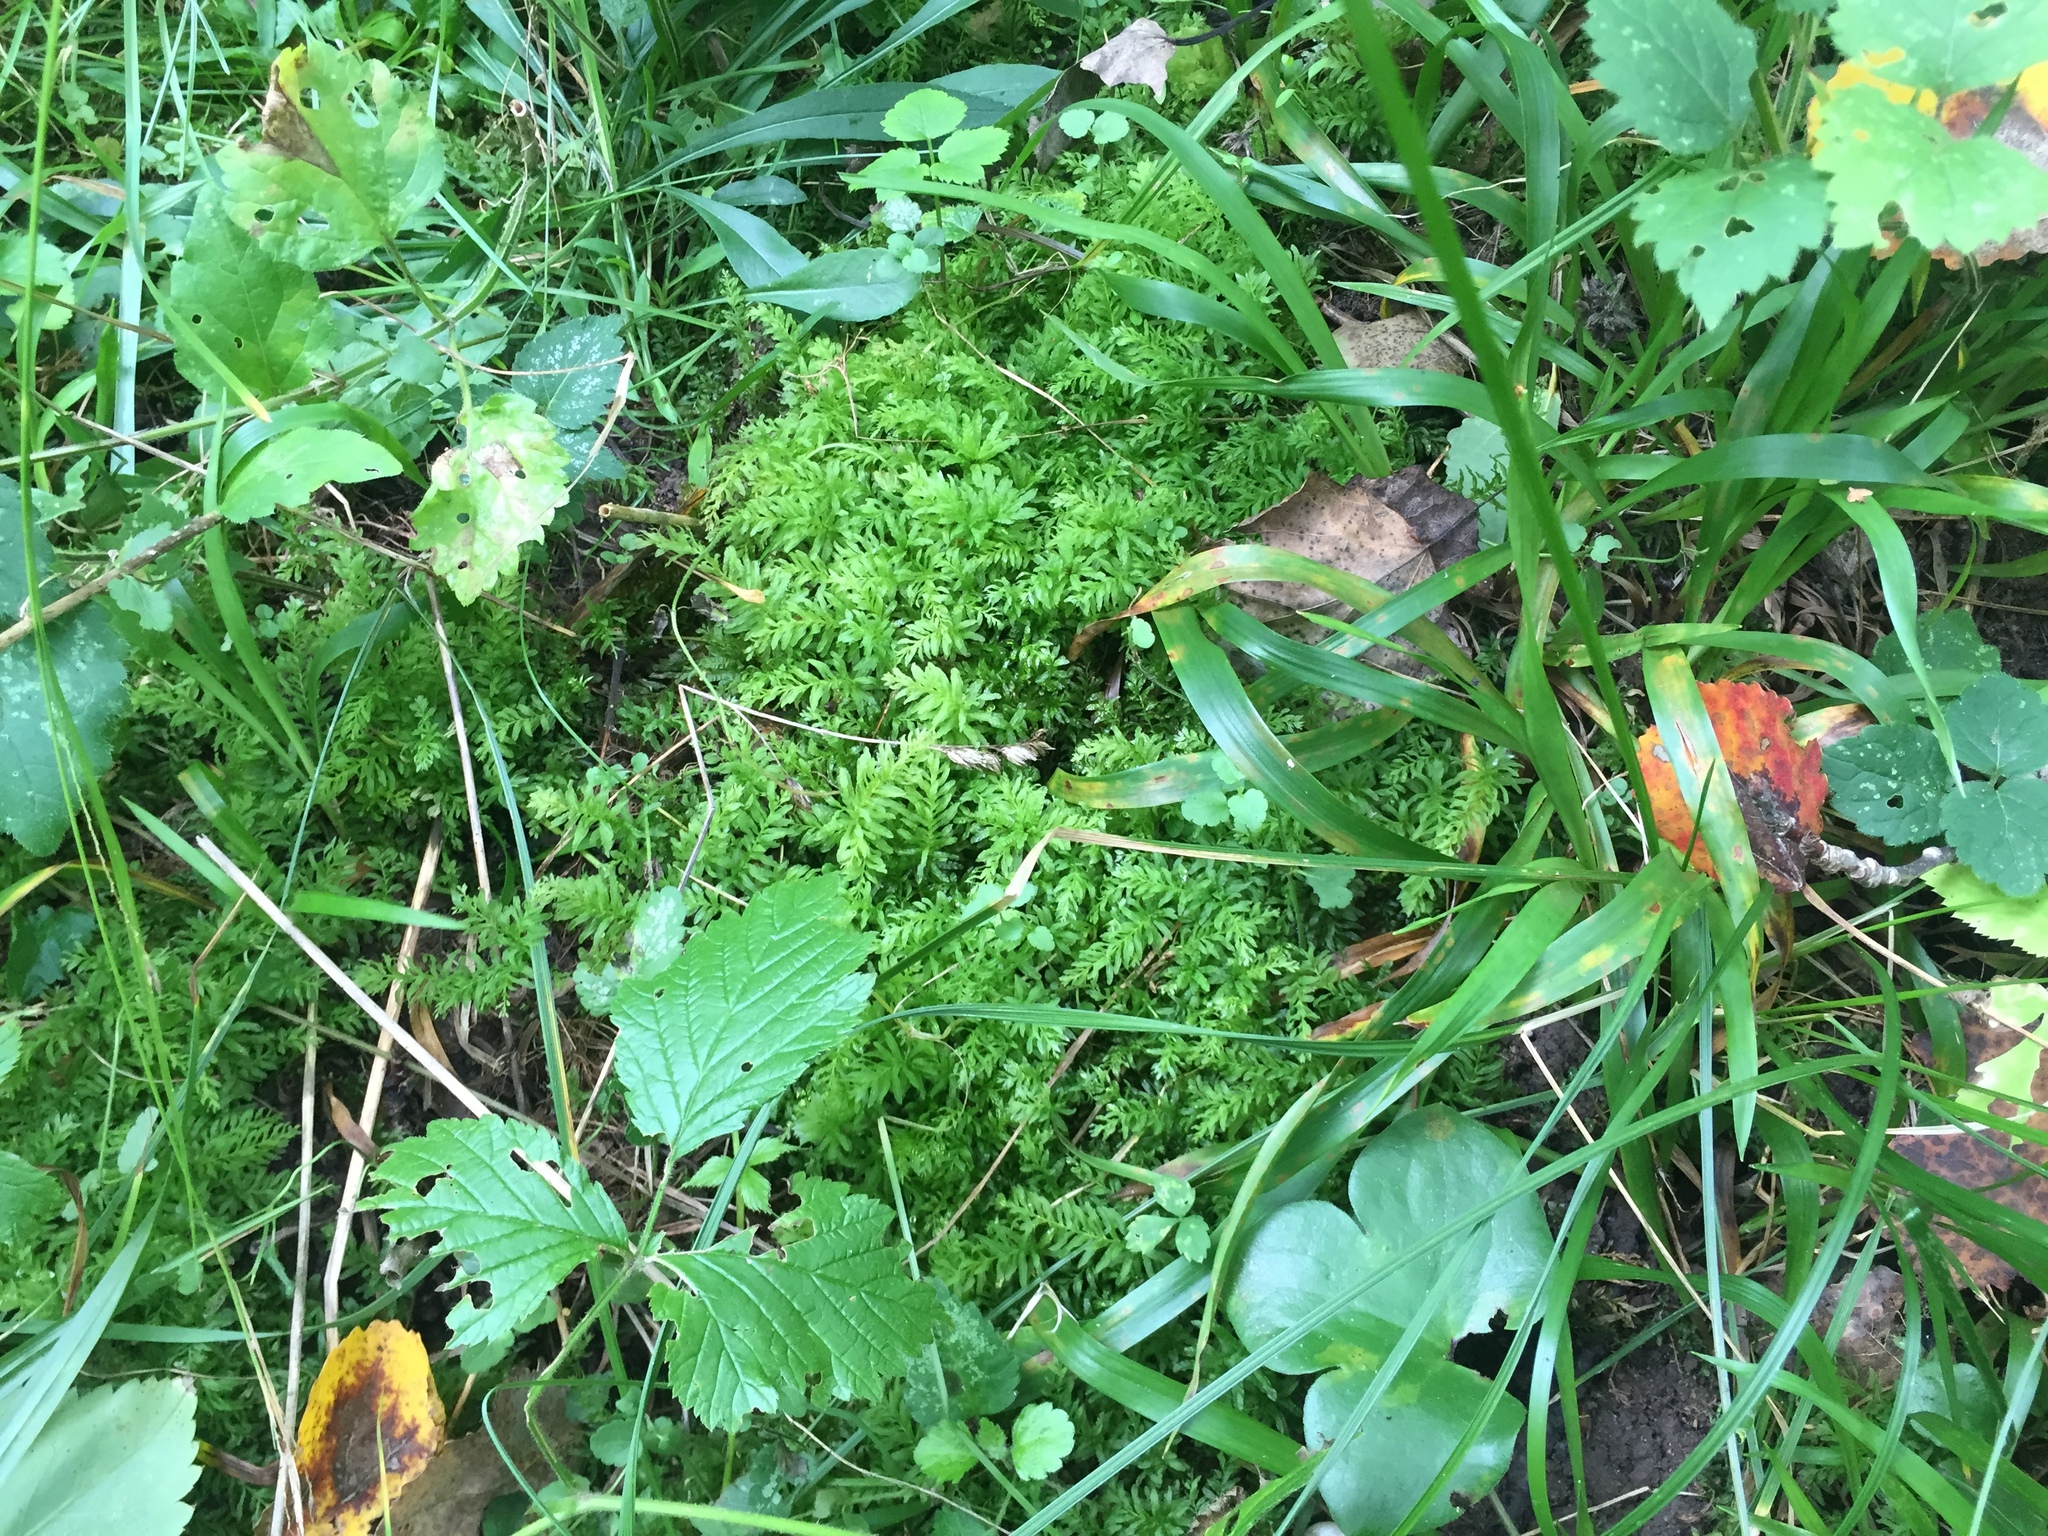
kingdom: Plantae
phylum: Bryophyta
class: Bryopsida
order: Bryales
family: Mniaceae
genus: Plagiomnium
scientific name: Plagiomnium undulatum
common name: Hart's-tongue thyme-moss
